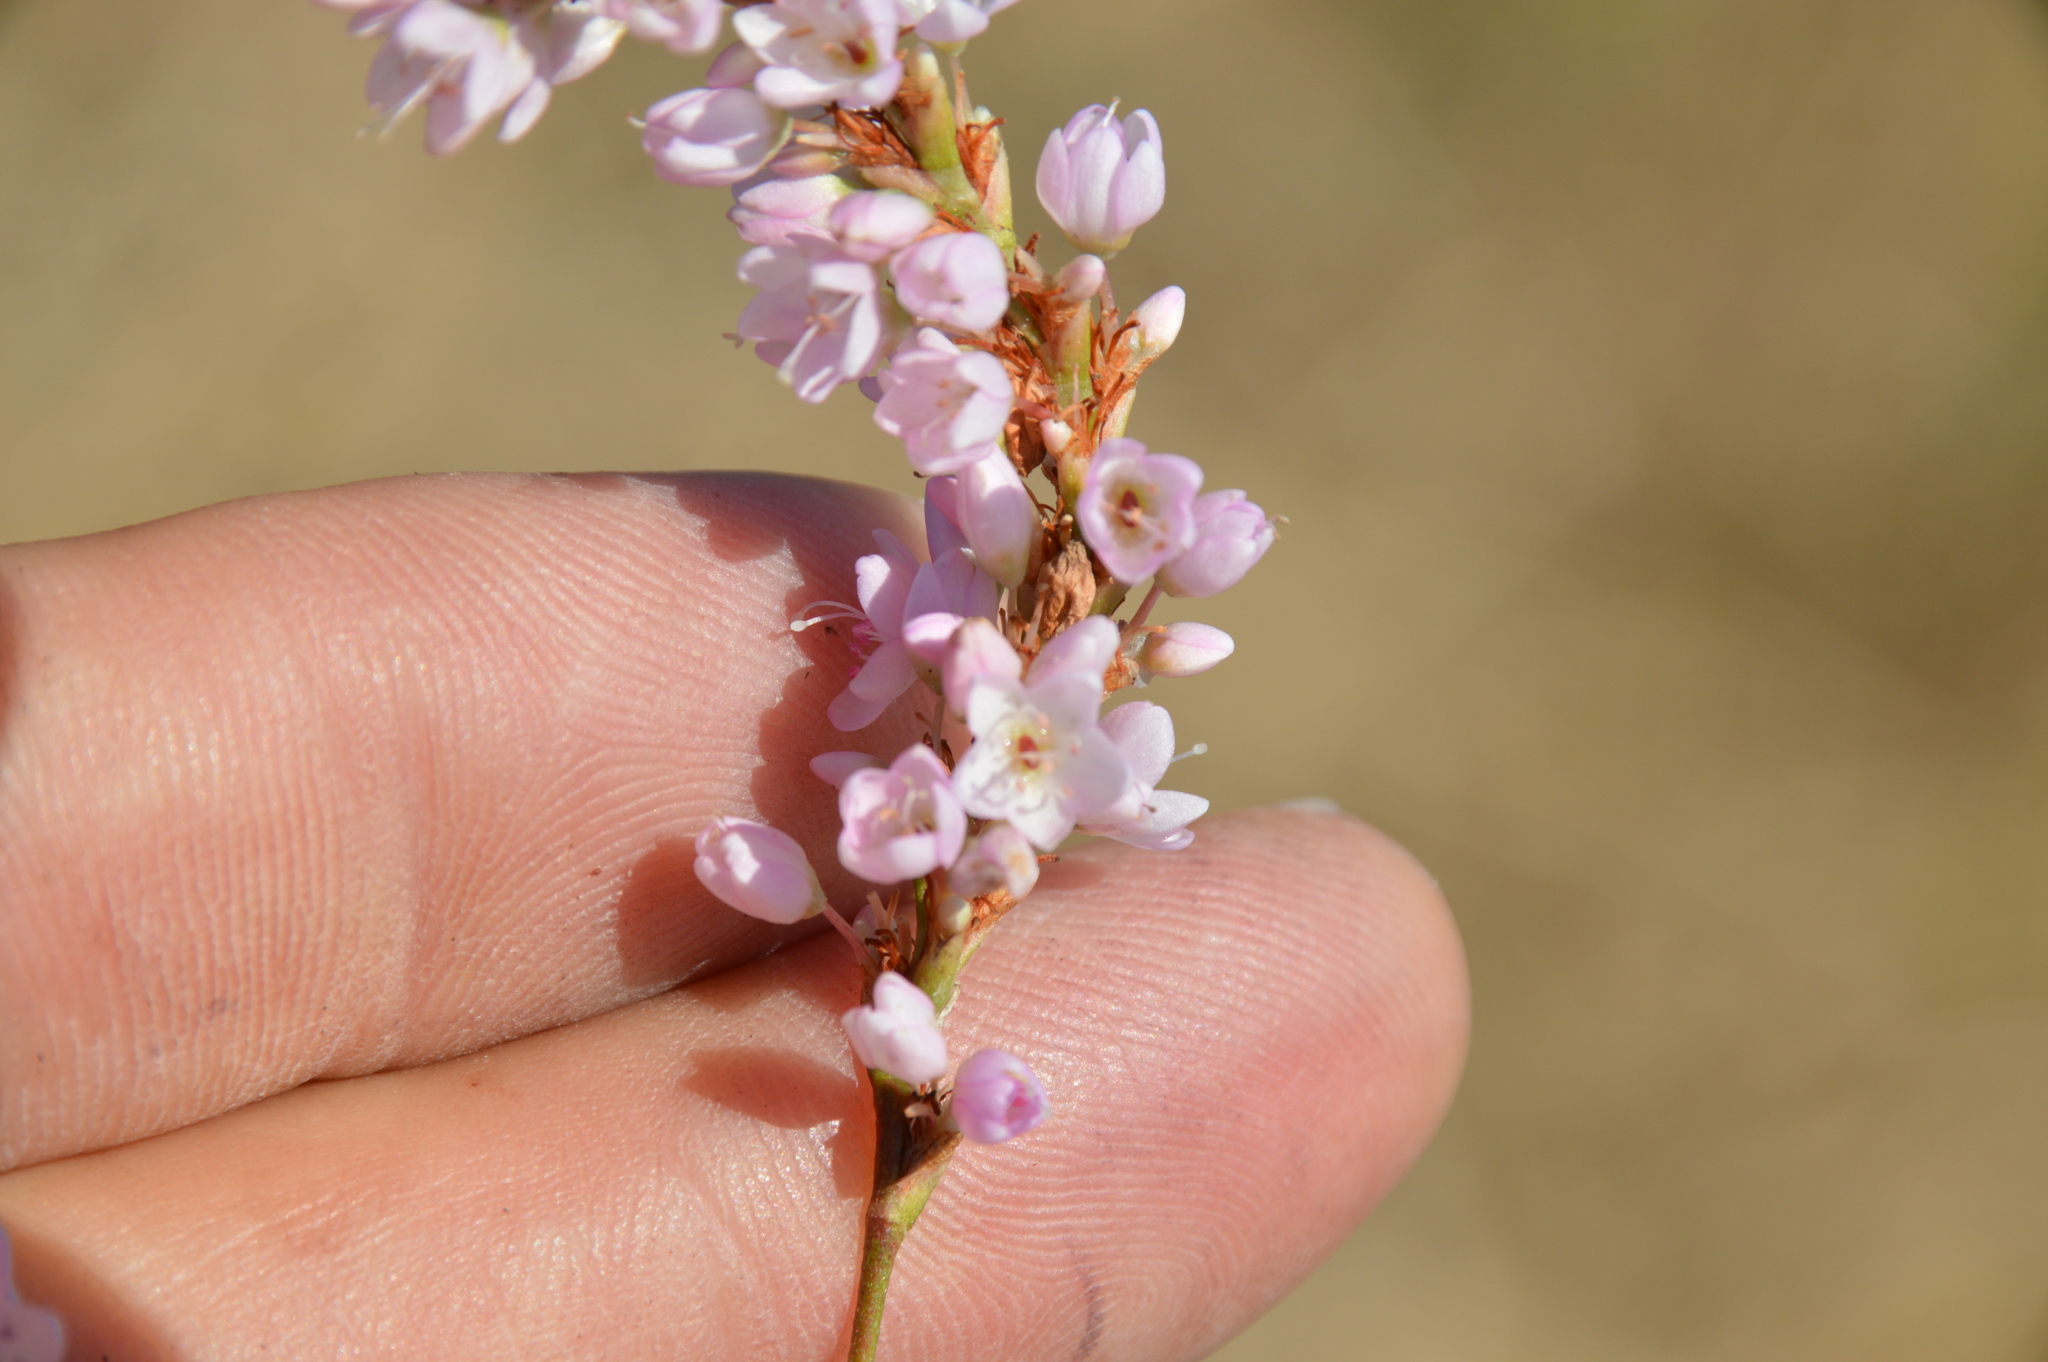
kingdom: Plantae
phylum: Tracheophyta
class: Magnoliopsida
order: Caryophyllales
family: Polygonaceae
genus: Persicaria
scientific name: Persicaria bicornis
